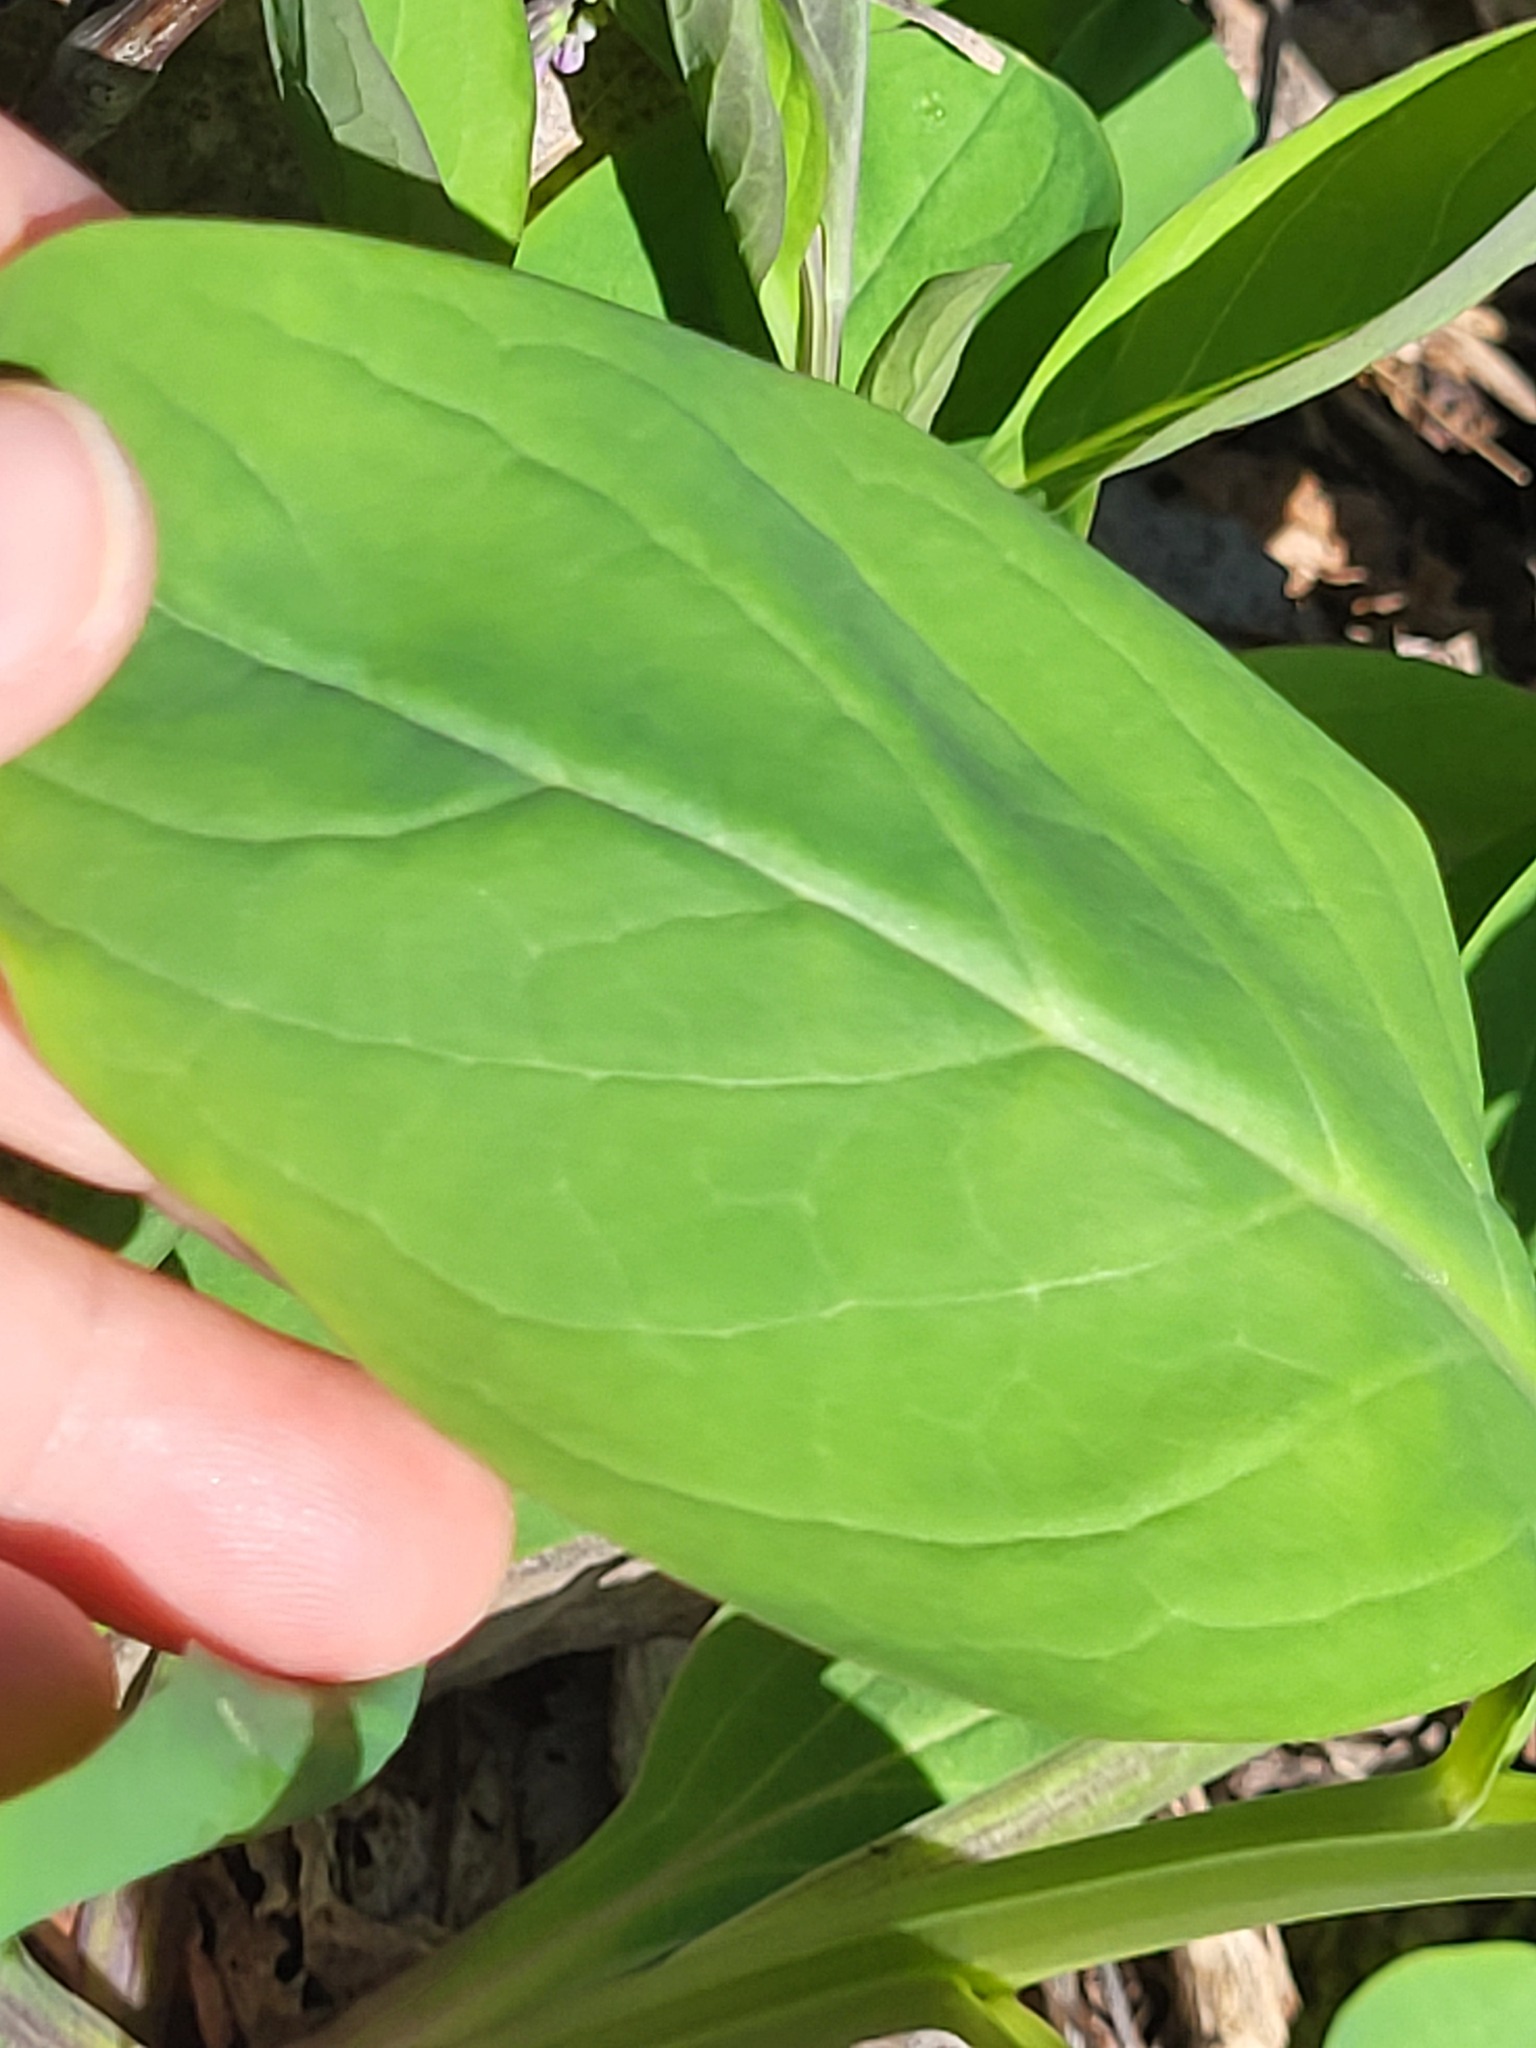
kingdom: Plantae
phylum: Tracheophyta
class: Magnoliopsida
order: Boraginales
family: Boraginaceae
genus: Mertensia
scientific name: Mertensia virginica
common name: Virginia bluebells
